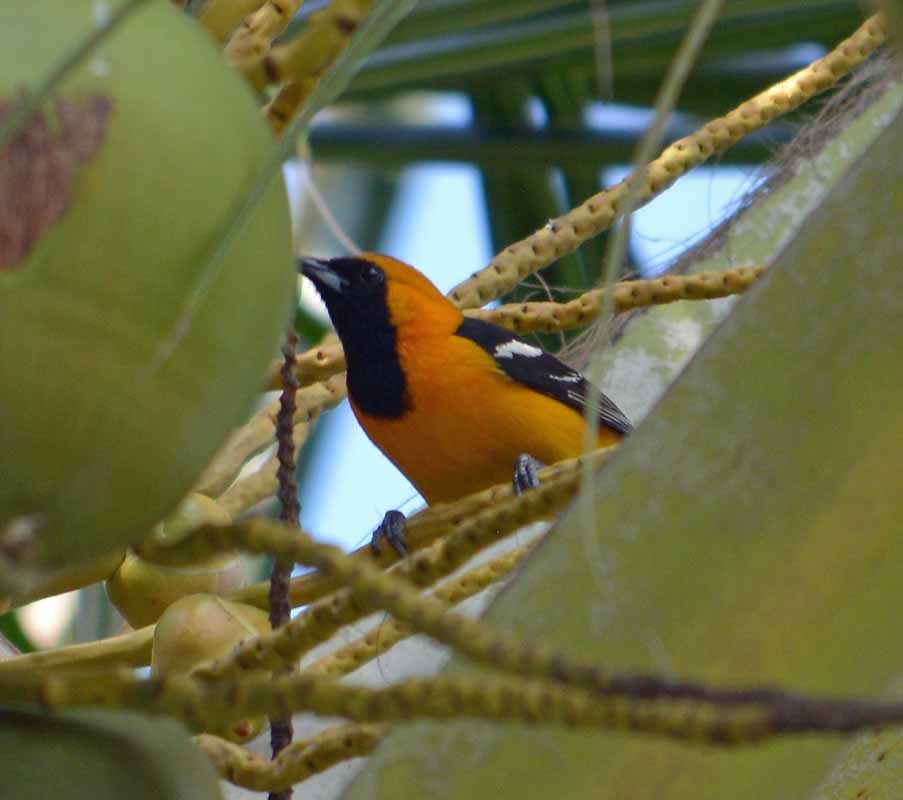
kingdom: Animalia
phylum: Chordata
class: Aves
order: Passeriformes
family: Icteridae
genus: Icterus
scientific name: Icterus cucullatus
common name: Hooded oriole
